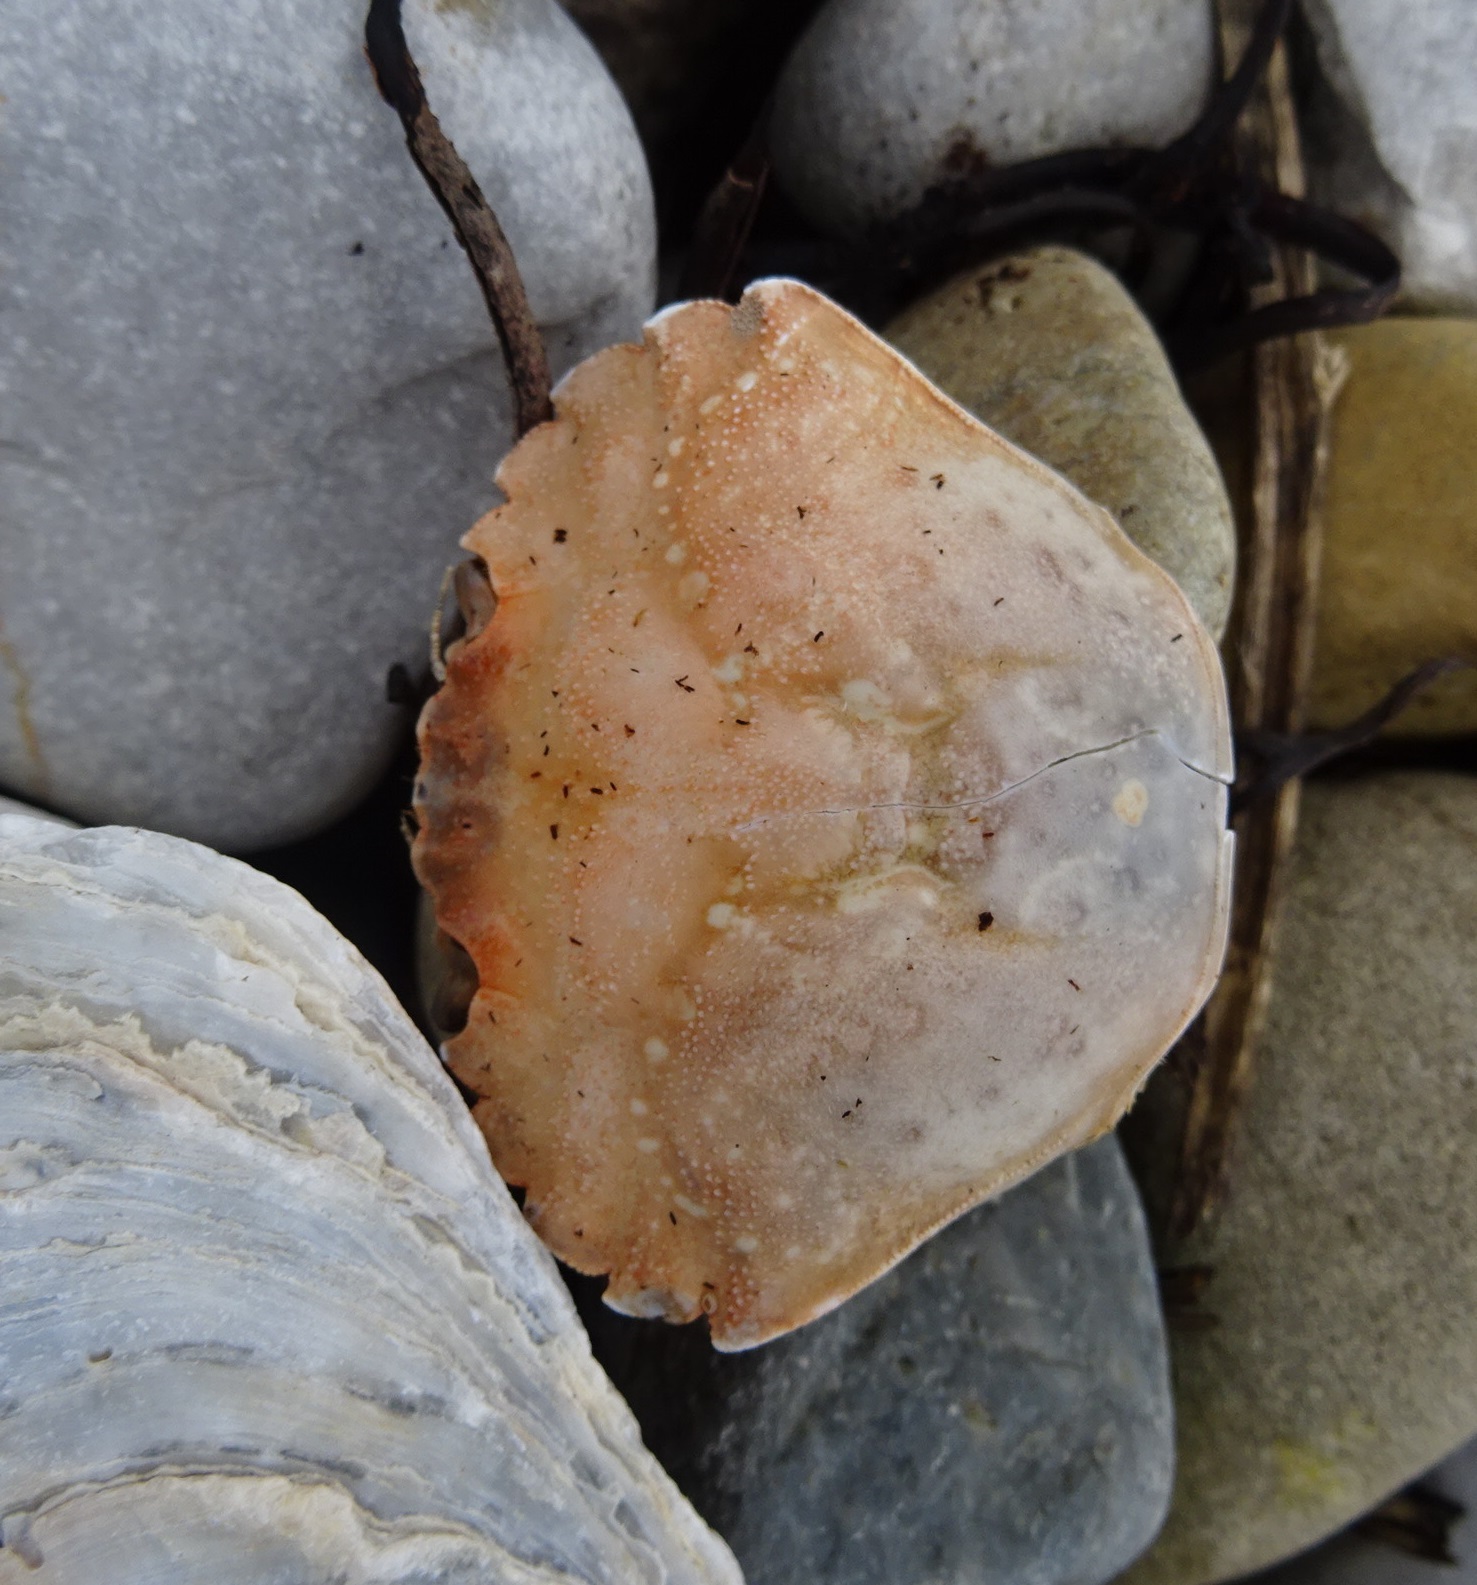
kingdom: Animalia
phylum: Arthropoda
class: Malacostraca
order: Decapoda
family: Carcinidae
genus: Carcinus
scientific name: Carcinus maenas
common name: European green crab
